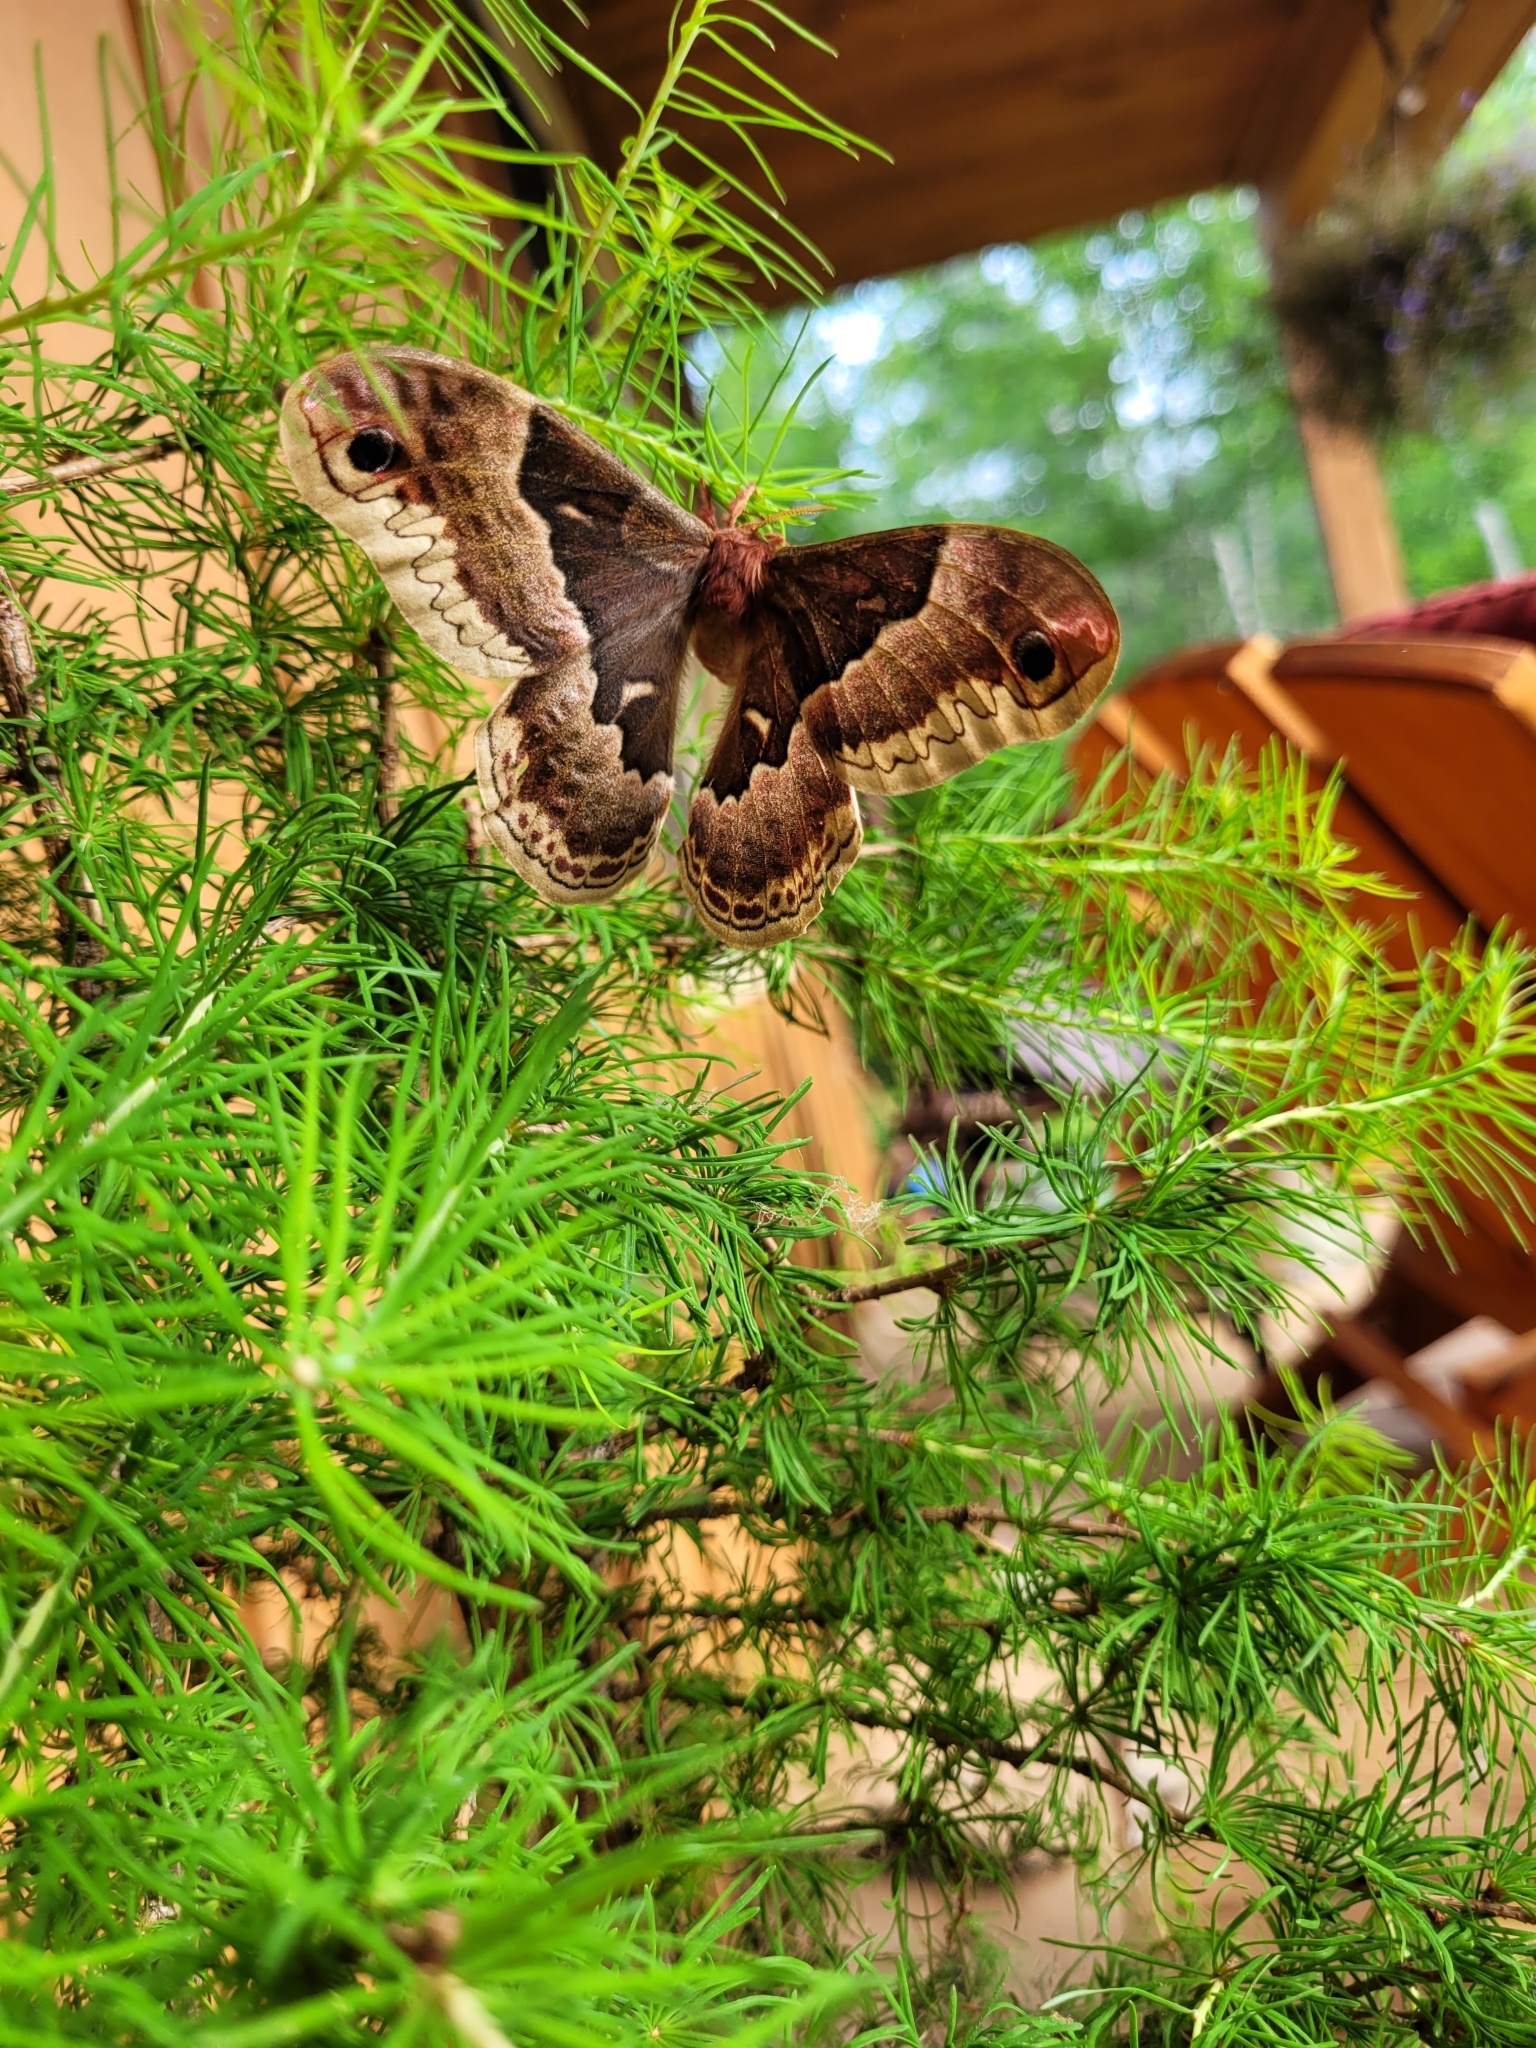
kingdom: Animalia
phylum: Arthropoda
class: Insecta
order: Lepidoptera
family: Saturniidae
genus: Callosamia
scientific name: Callosamia promethea
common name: Promethea silkmoth
